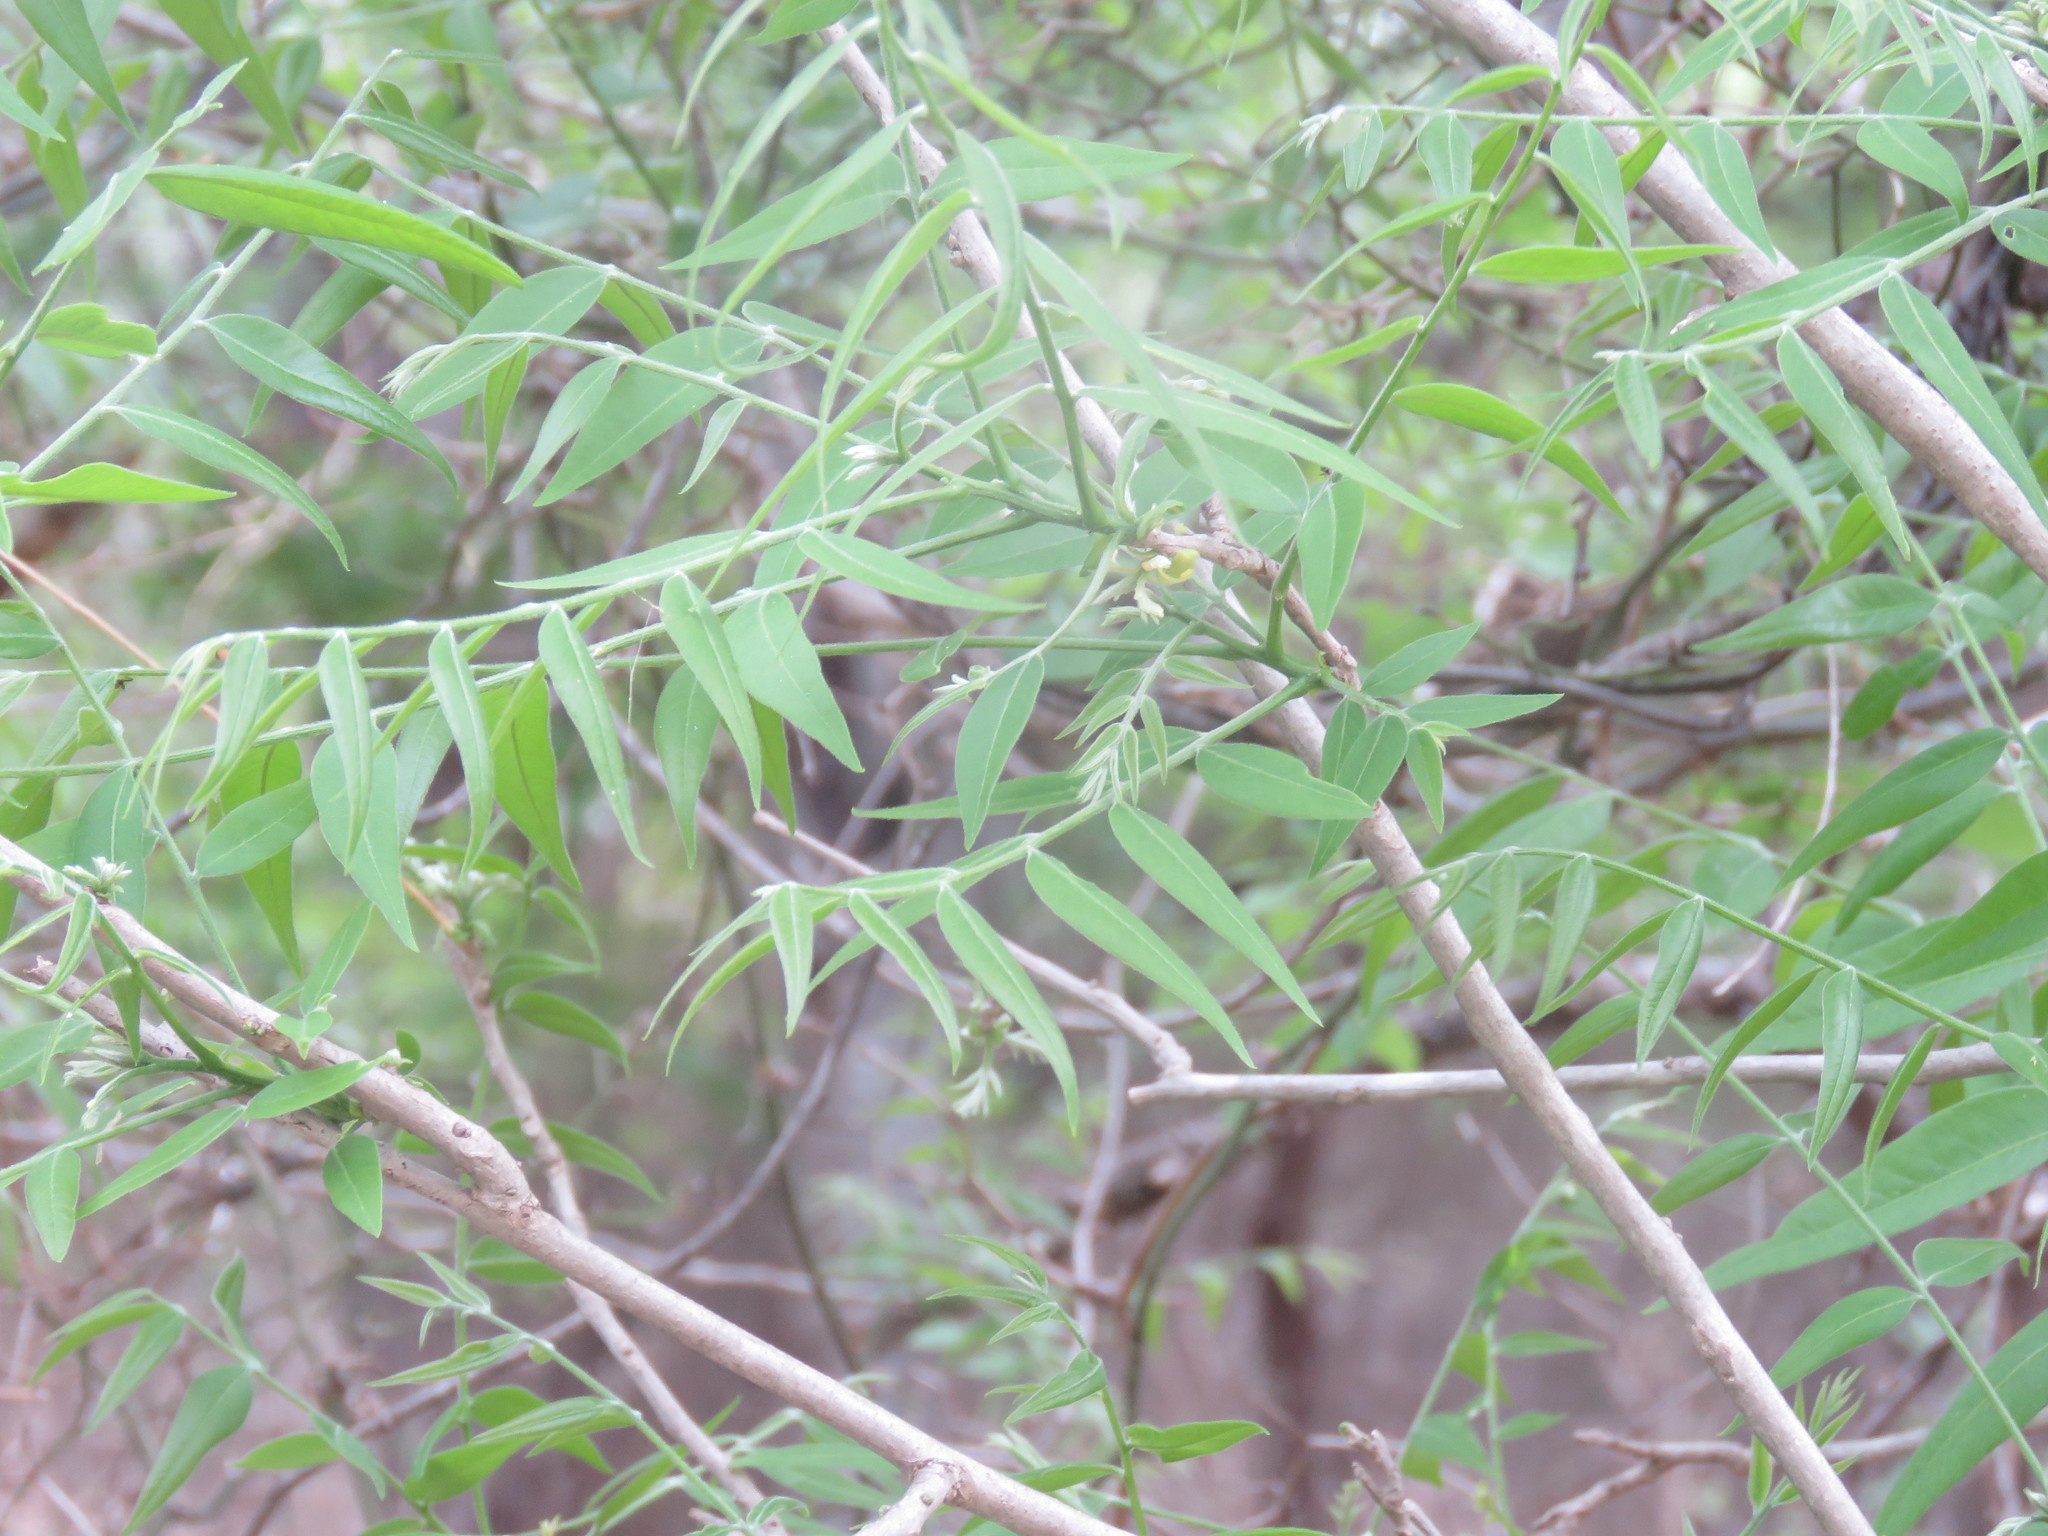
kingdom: Plantae
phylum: Tracheophyta
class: Magnoliopsida
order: Sapindales
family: Sapindaceae
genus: Sapindus
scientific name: Sapindus drummondii
